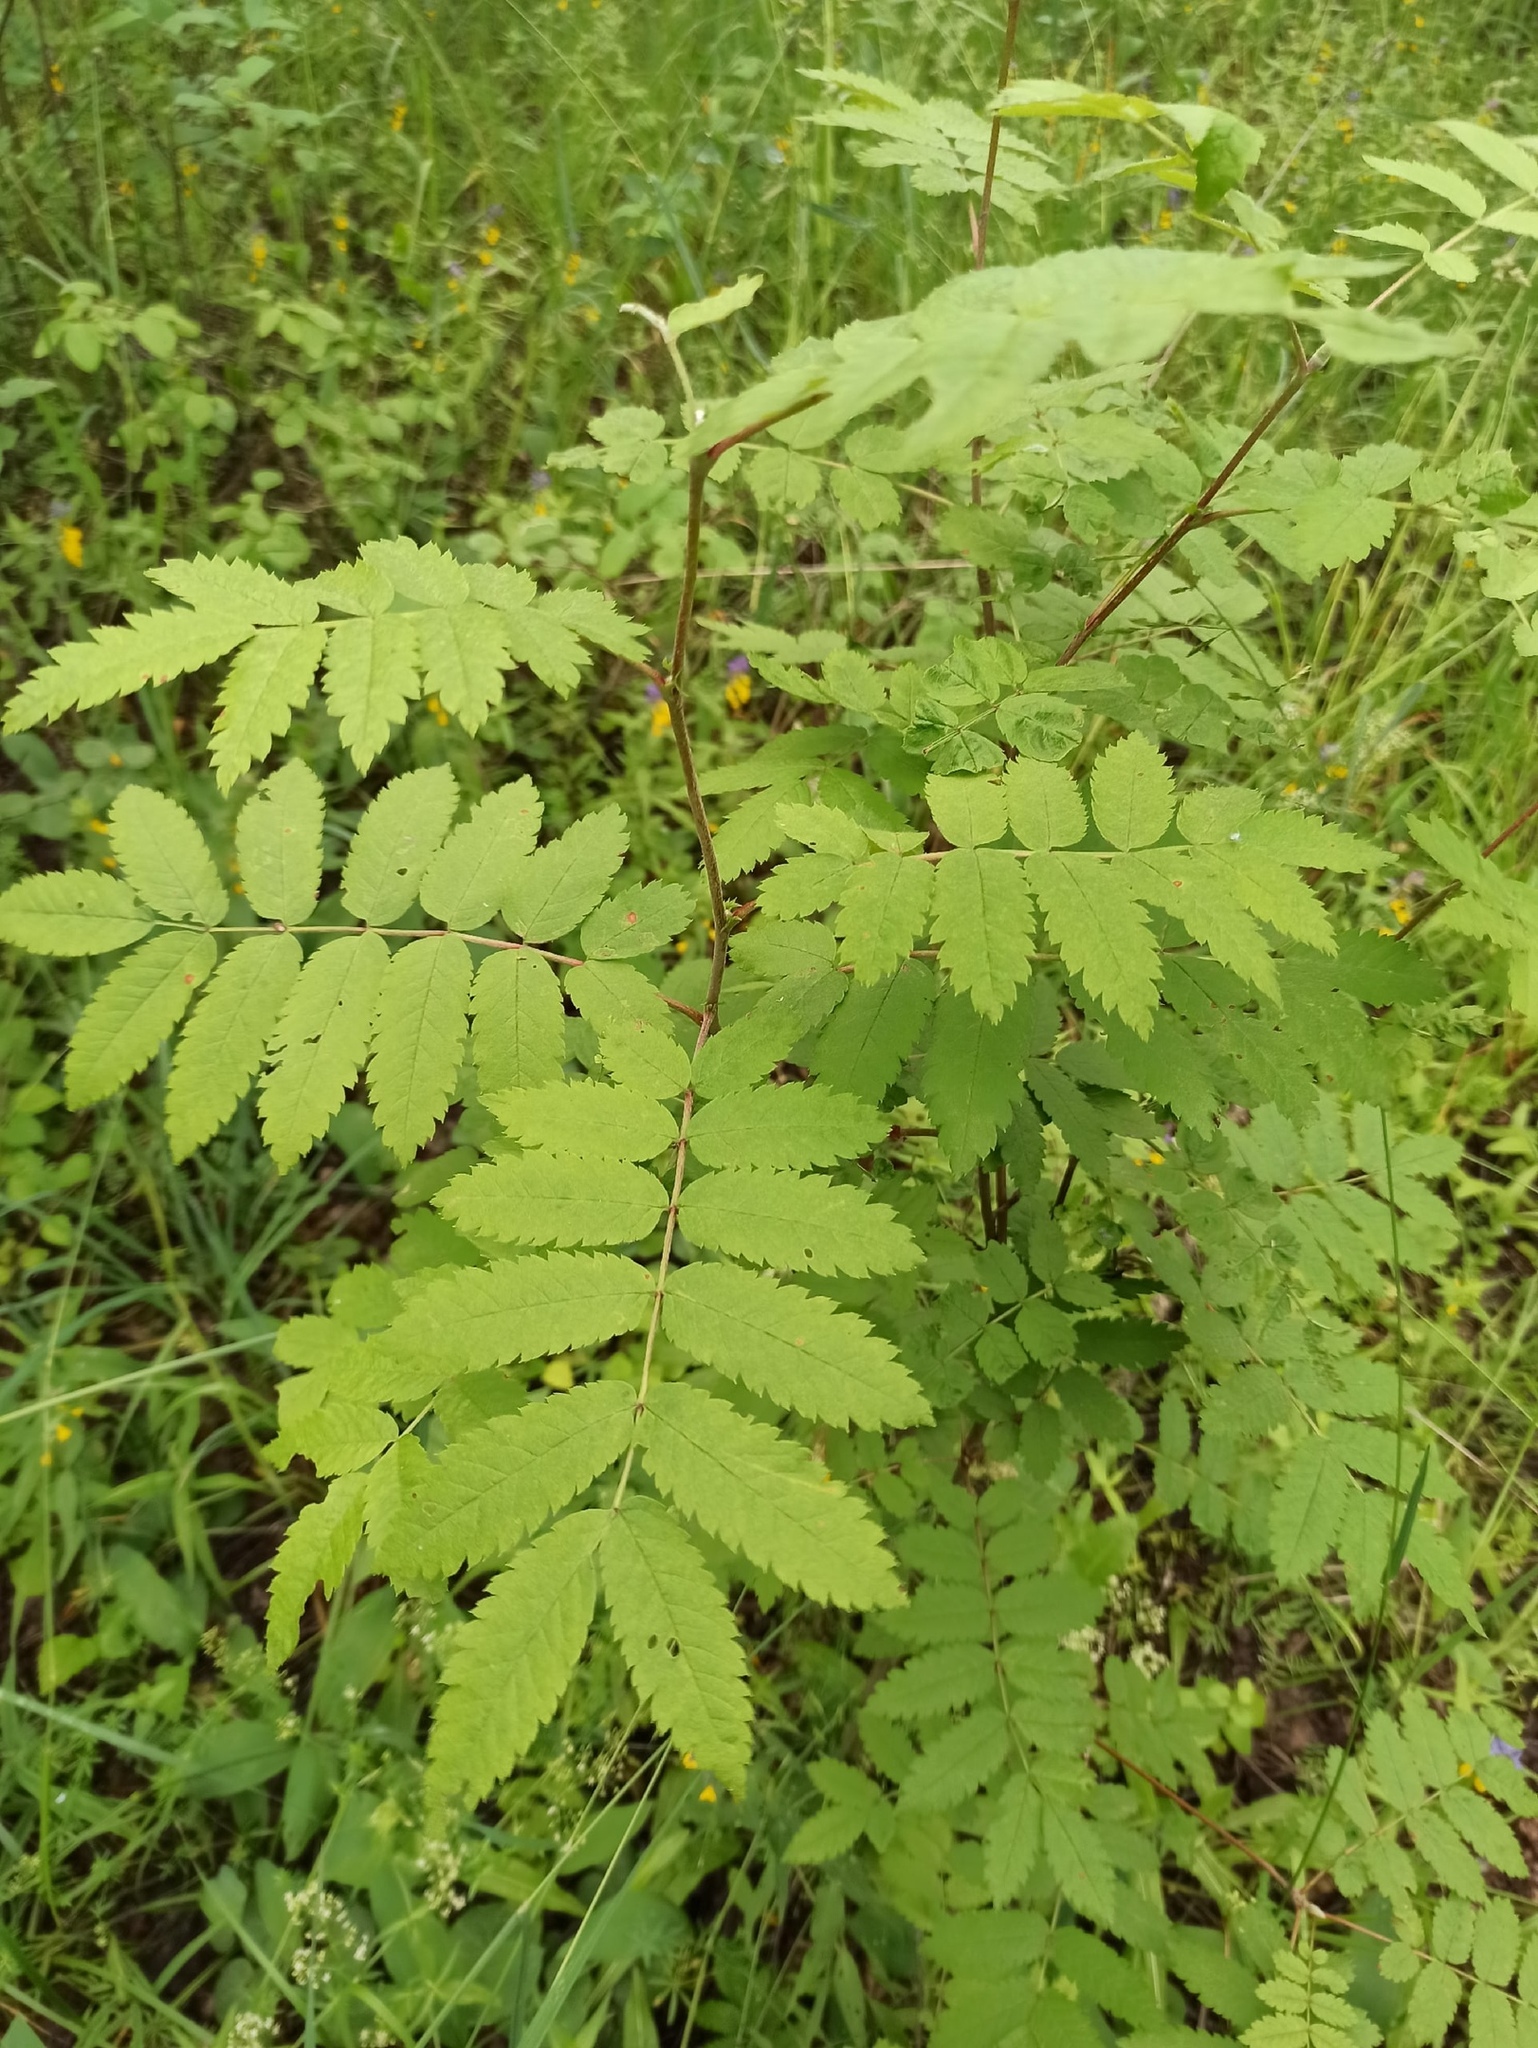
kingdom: Plantae
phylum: Tracheophyta
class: Magnoliopsida
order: Rosales
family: Rosaceae
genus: Sorbus
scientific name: Sorbus aucuparia
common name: Rowan
